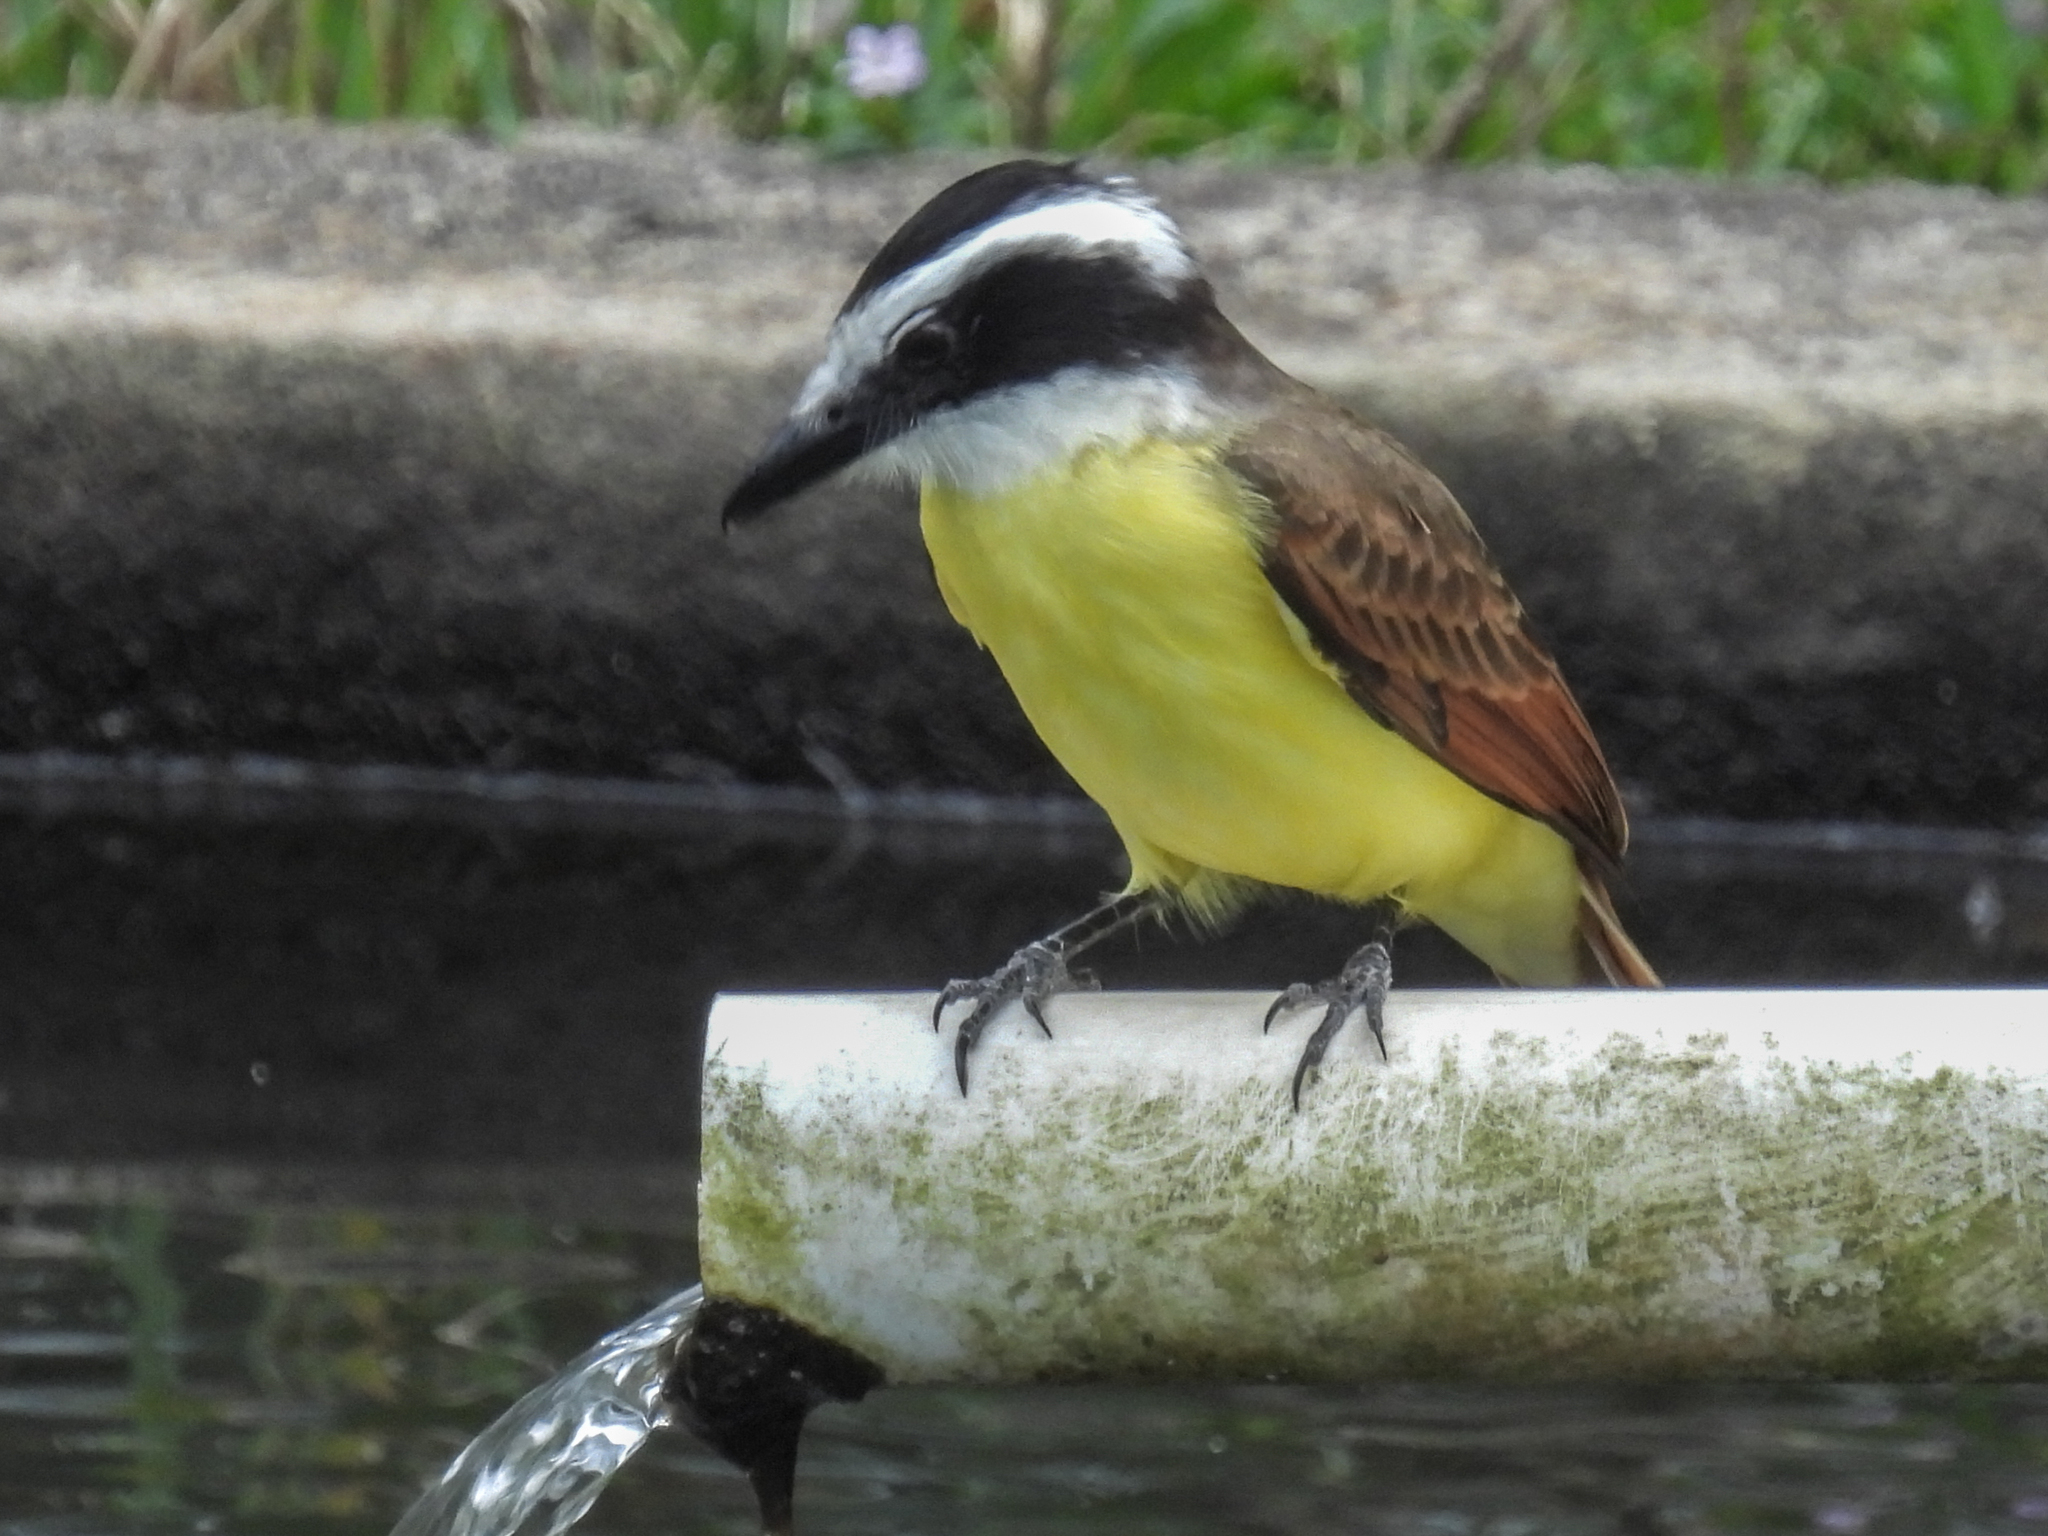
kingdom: Animalia
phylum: Chordata
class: Aves
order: Passeriformes
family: Tyrannidae
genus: Pitangus
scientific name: Pitangus sulphuratus
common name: Great kiskadee
